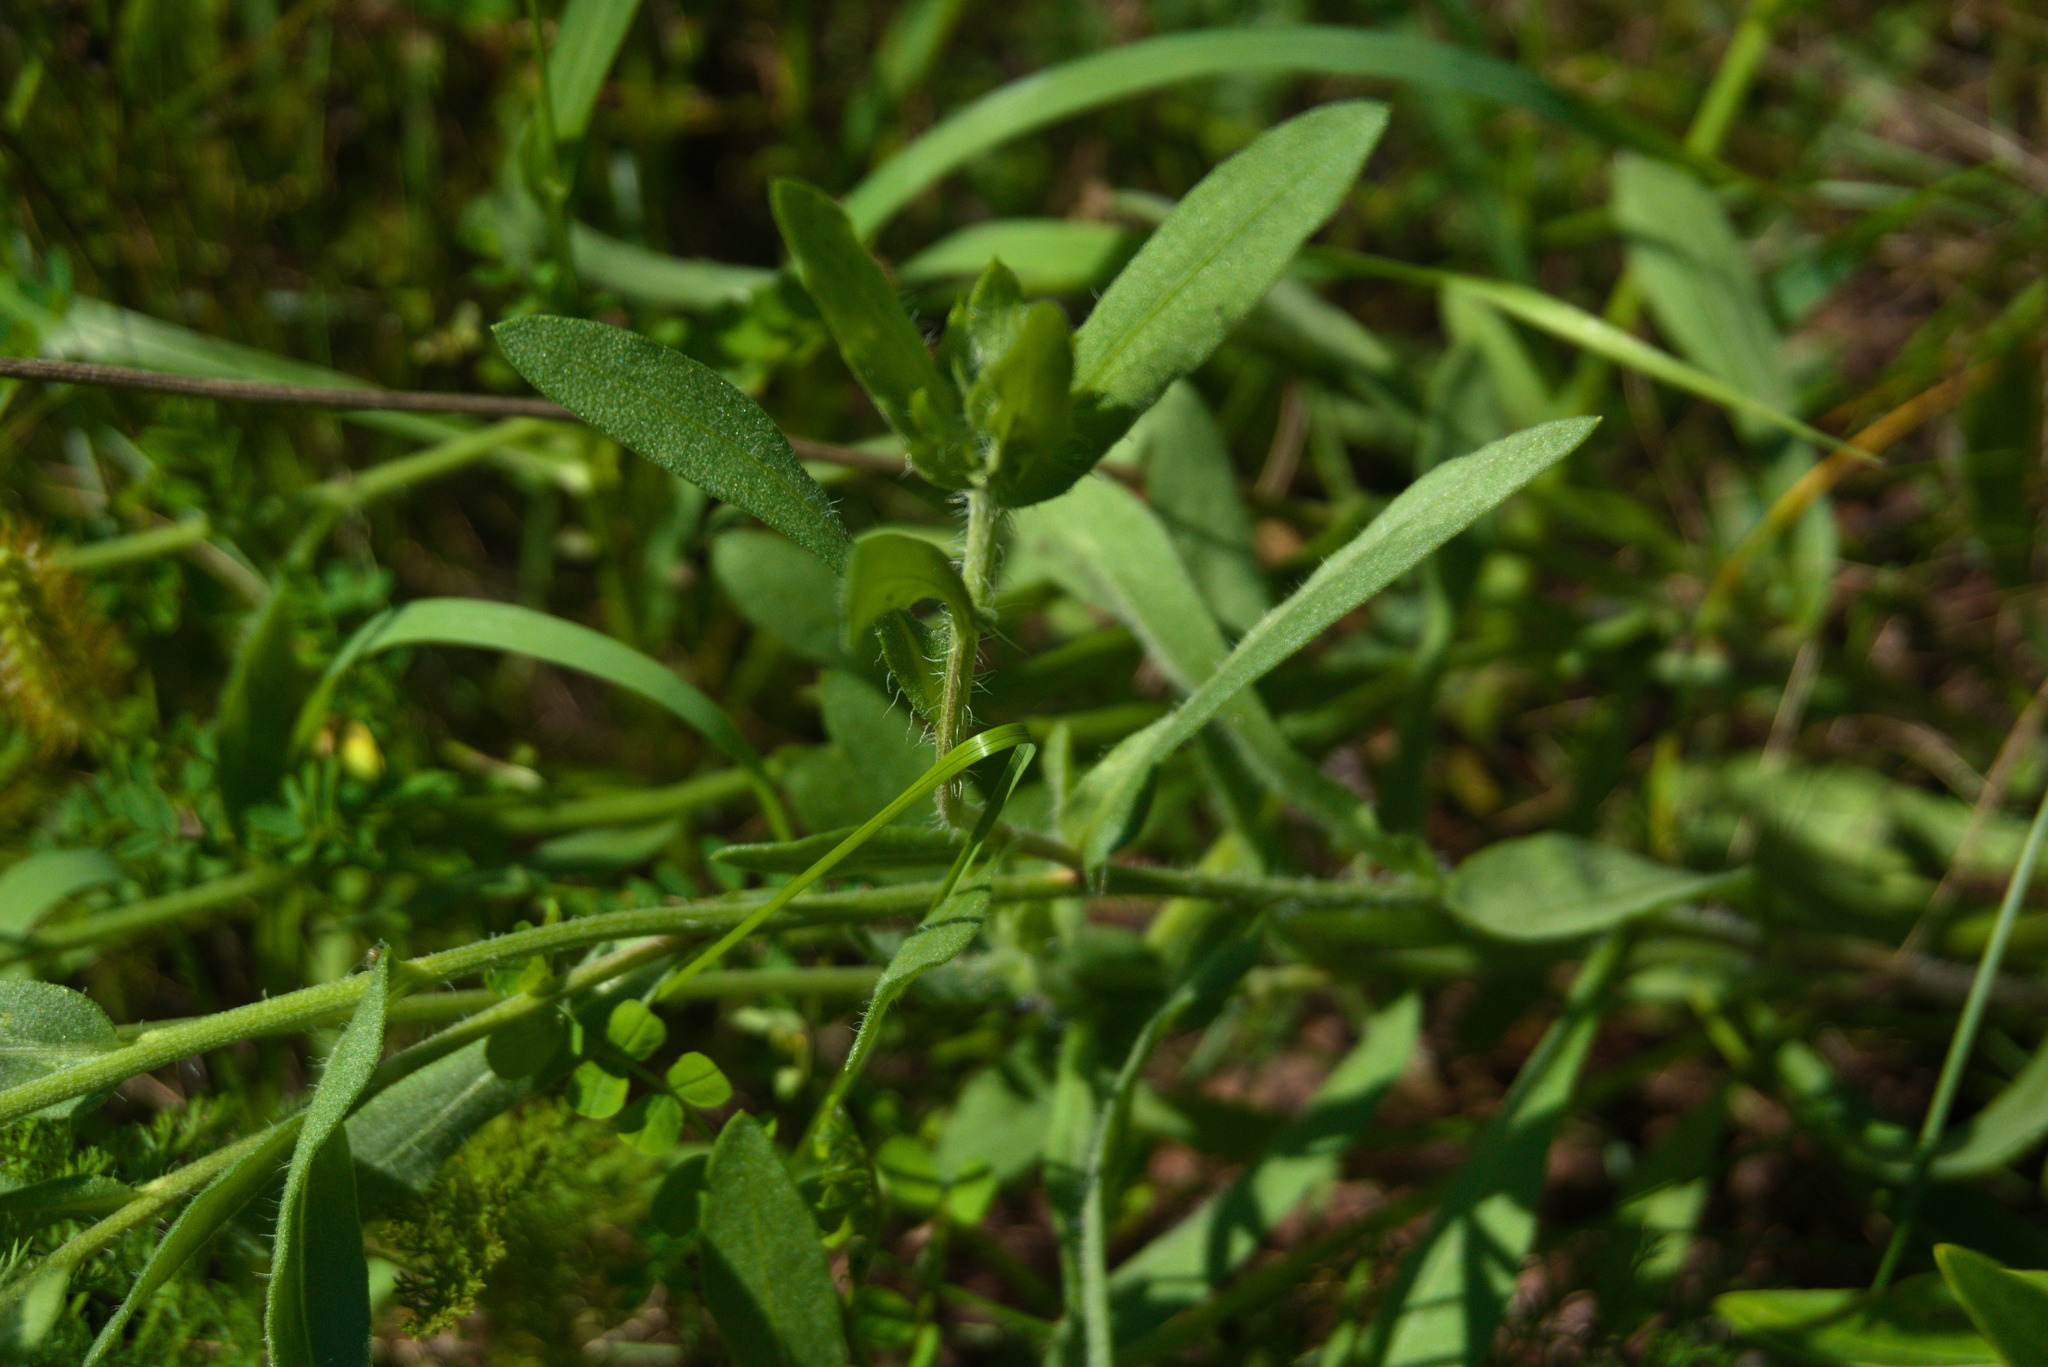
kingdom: Plantae
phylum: Tracheophyta
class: Magnoliopsida
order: Asterales
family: Asteraceae
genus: Gaillardia
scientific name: Gaillardia pulchella
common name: Firewheel
